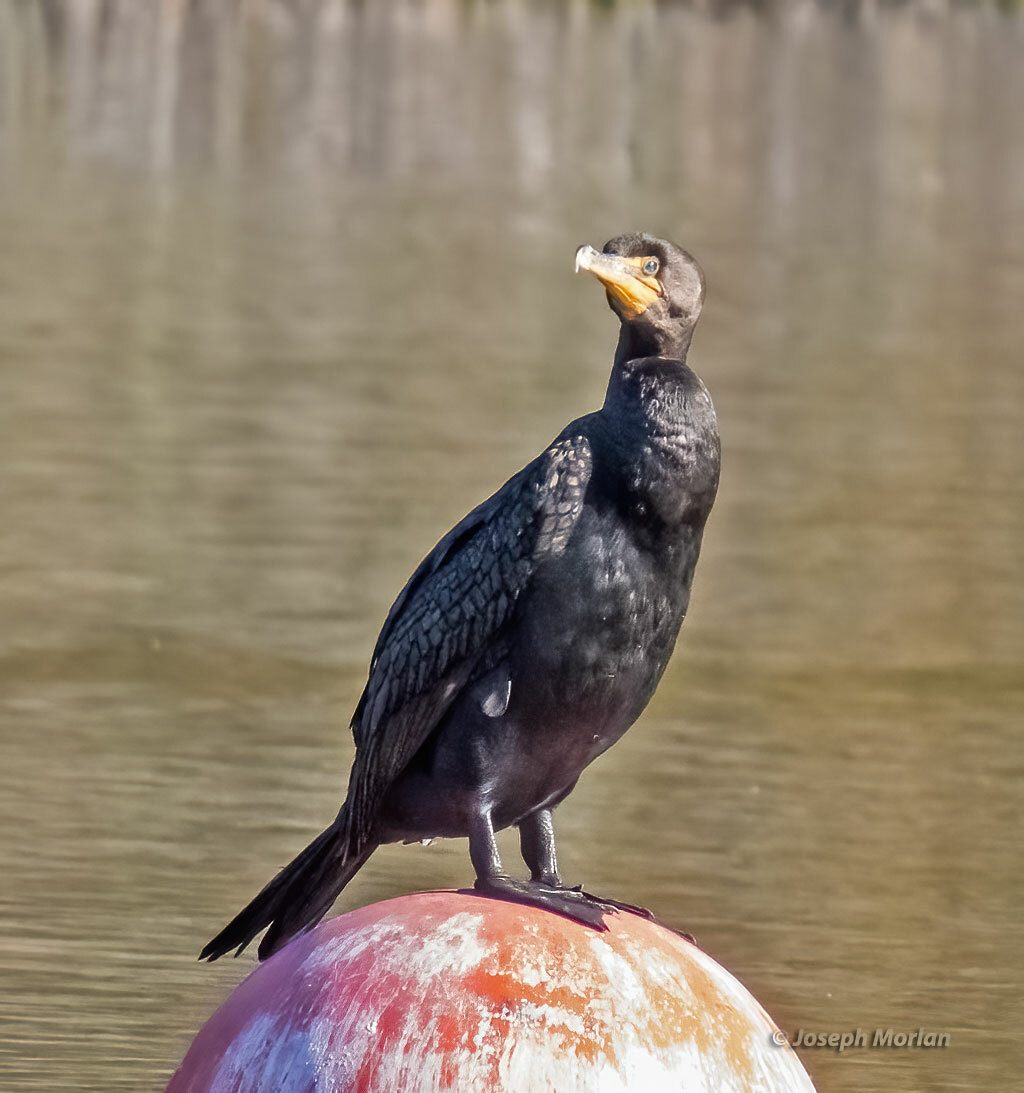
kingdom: Animalia
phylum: Chordata
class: Aves
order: Suliformes
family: Phalacrocoracidae
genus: Phalacrocorax
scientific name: Phalacrocorax auritus
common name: Double-crested cormorant
